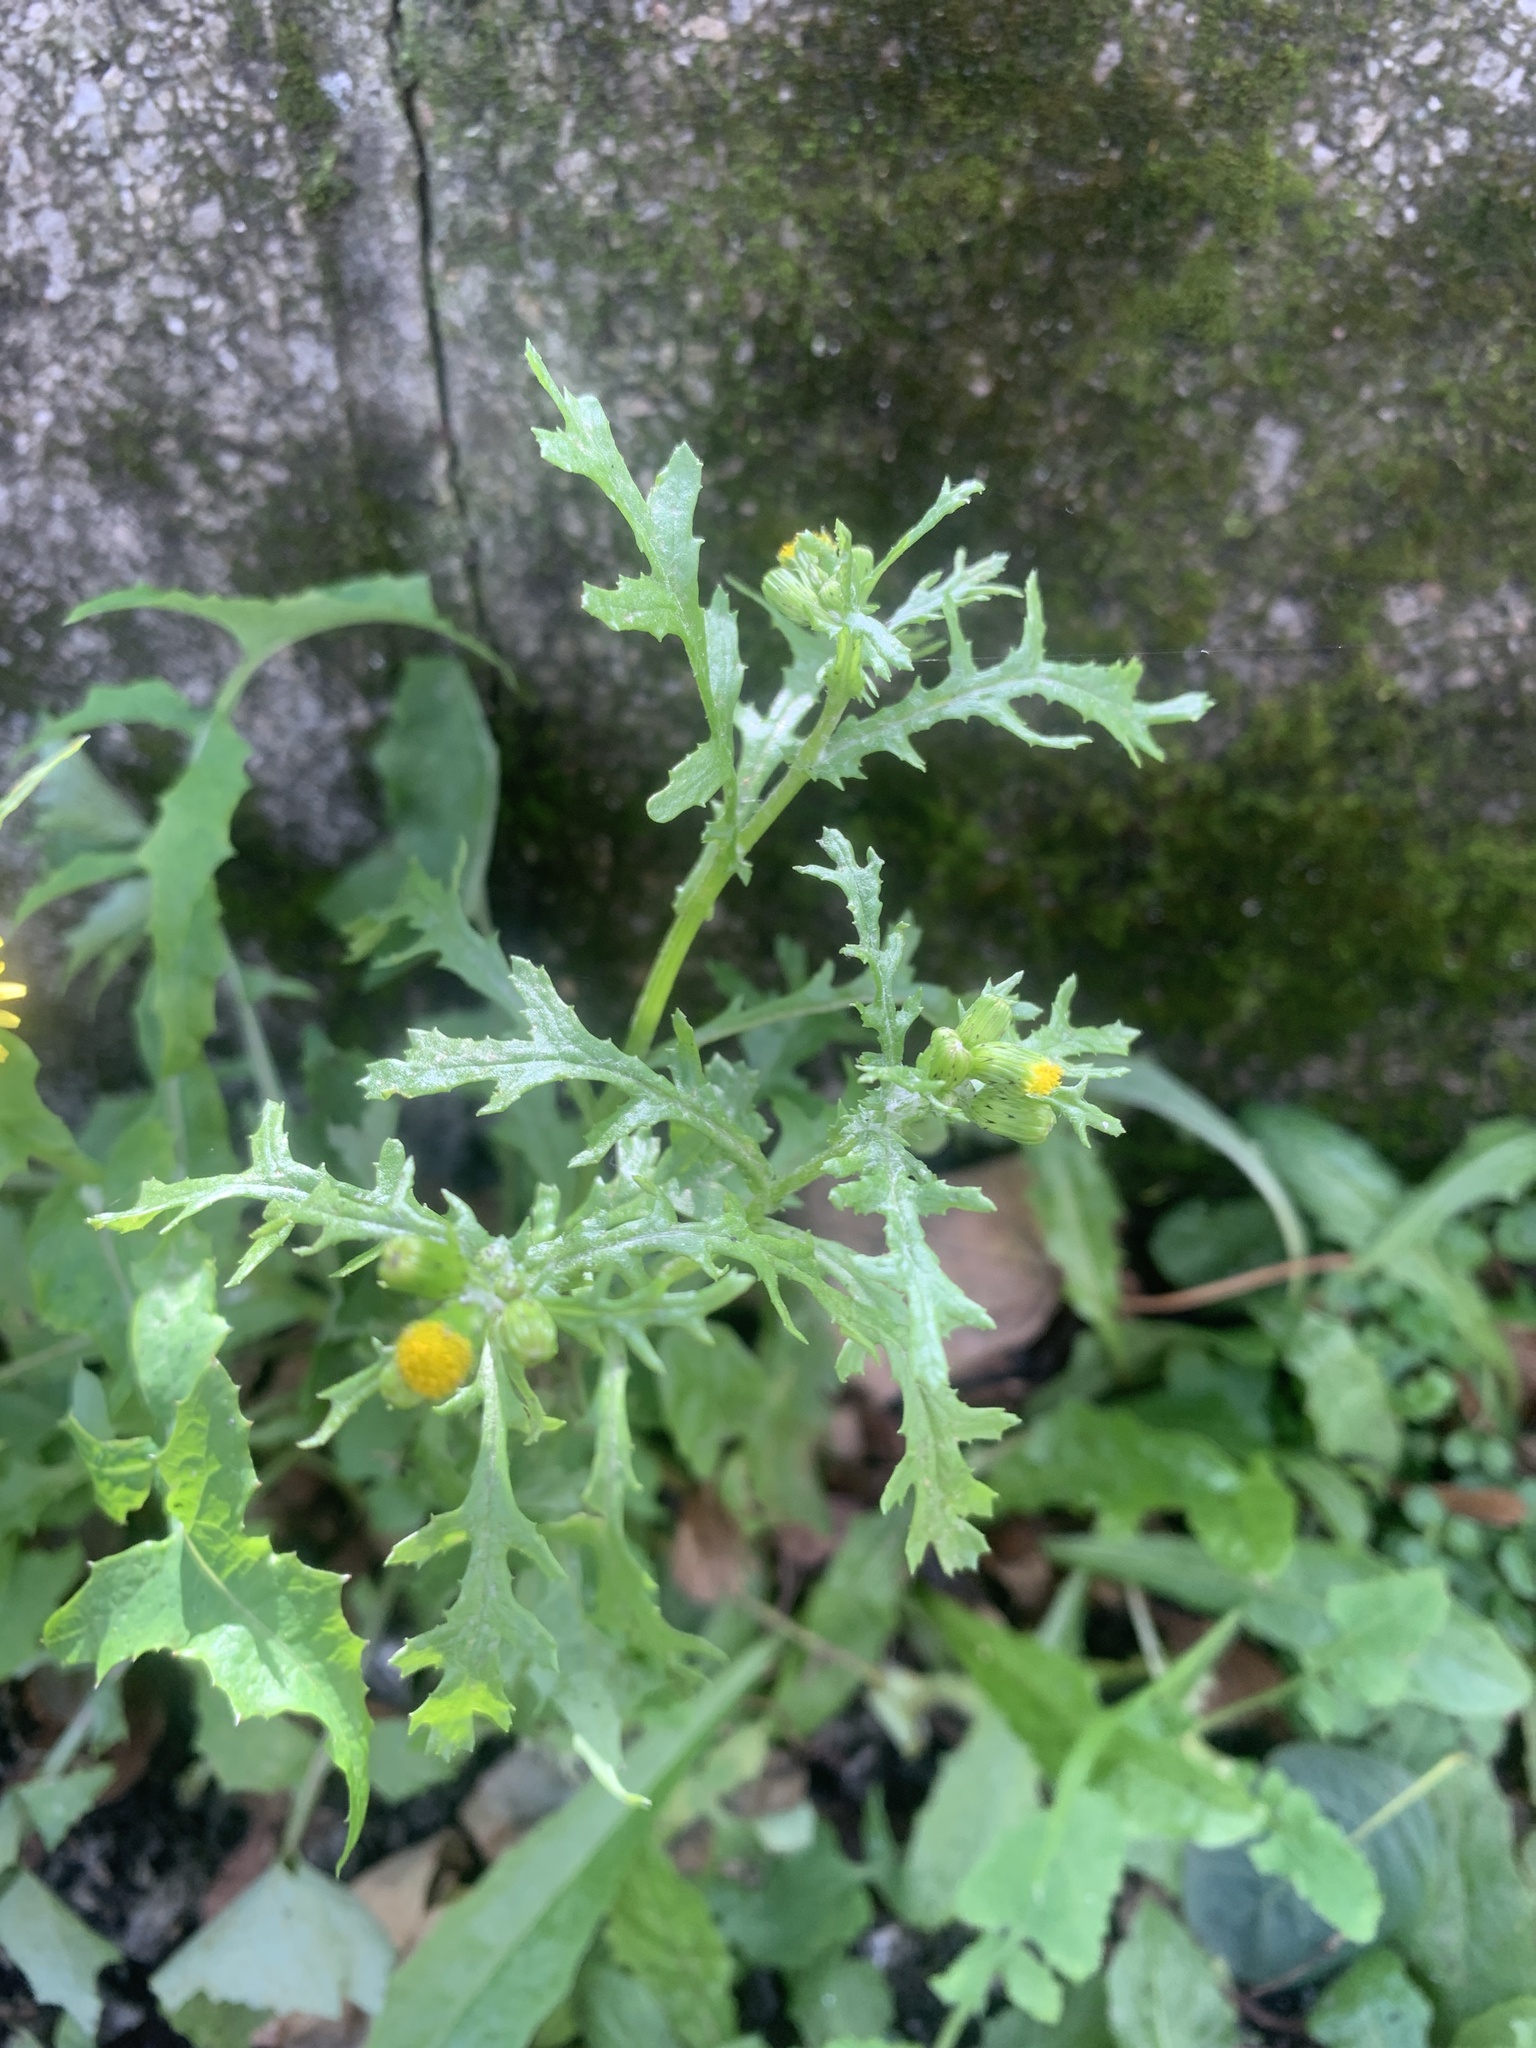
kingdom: Plantae
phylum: Tracheophyta
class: Magnoliopsida
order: Asterales
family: Asteraceae
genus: Senecio
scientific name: Senecio vulgaris
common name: Old-man-in-the-spring
